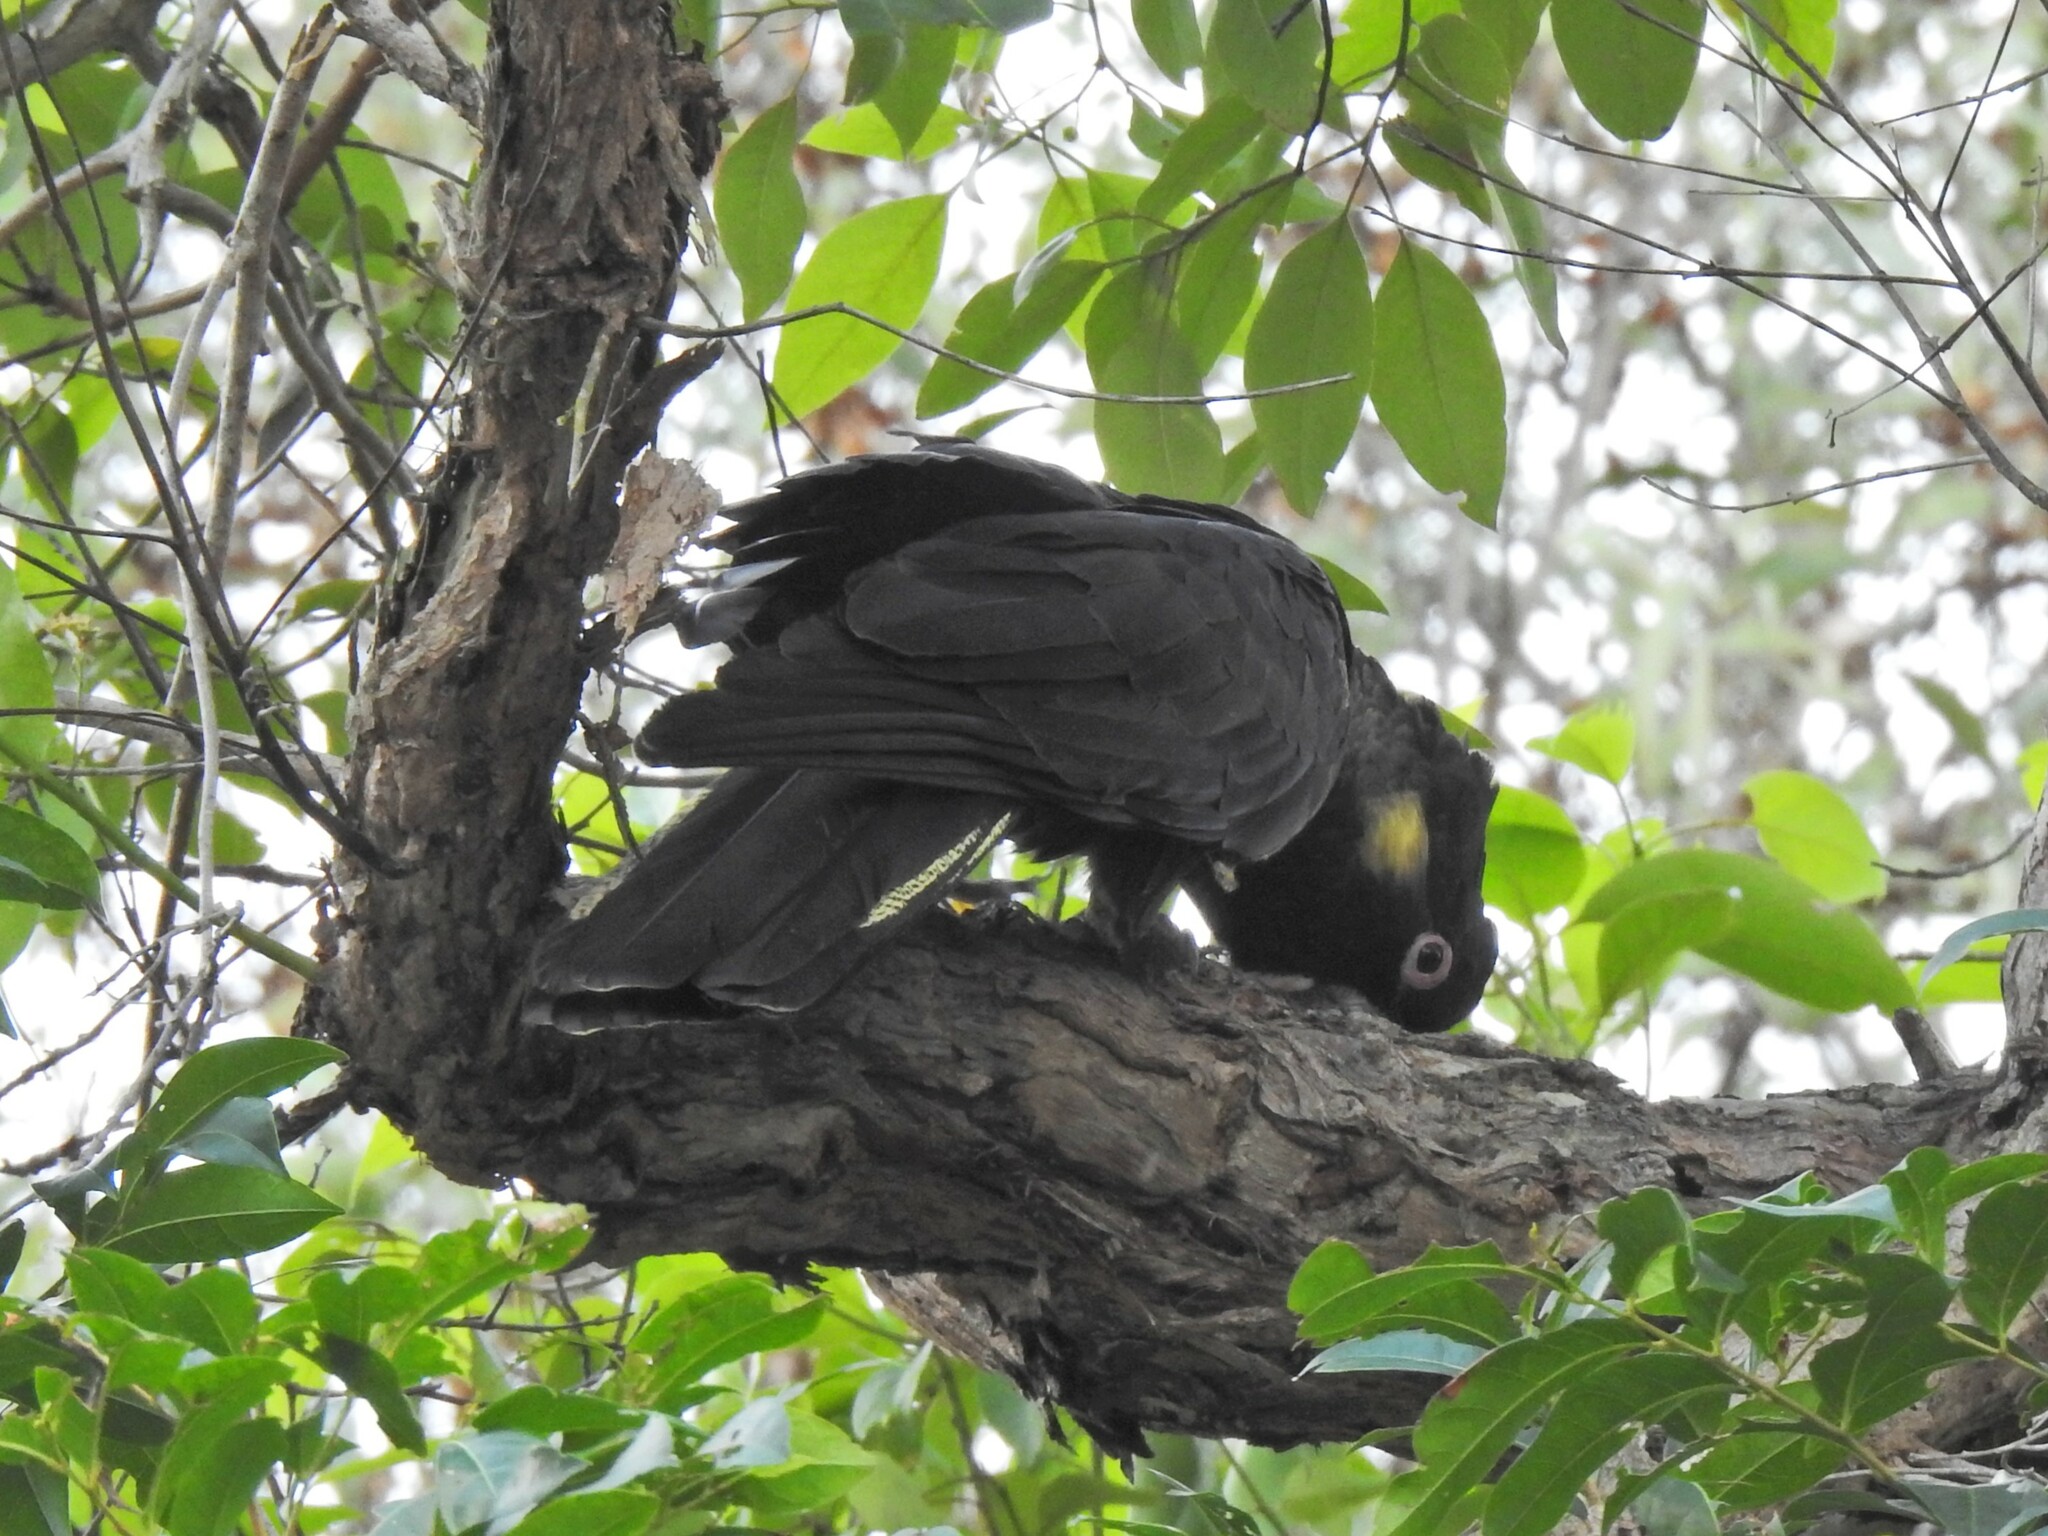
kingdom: Animalia
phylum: Chordata
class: Aves
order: Psittaciformes
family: Cacatuidae
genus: Zanda
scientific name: Zanda funerea
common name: Yellow-tailed black-cockatoo
